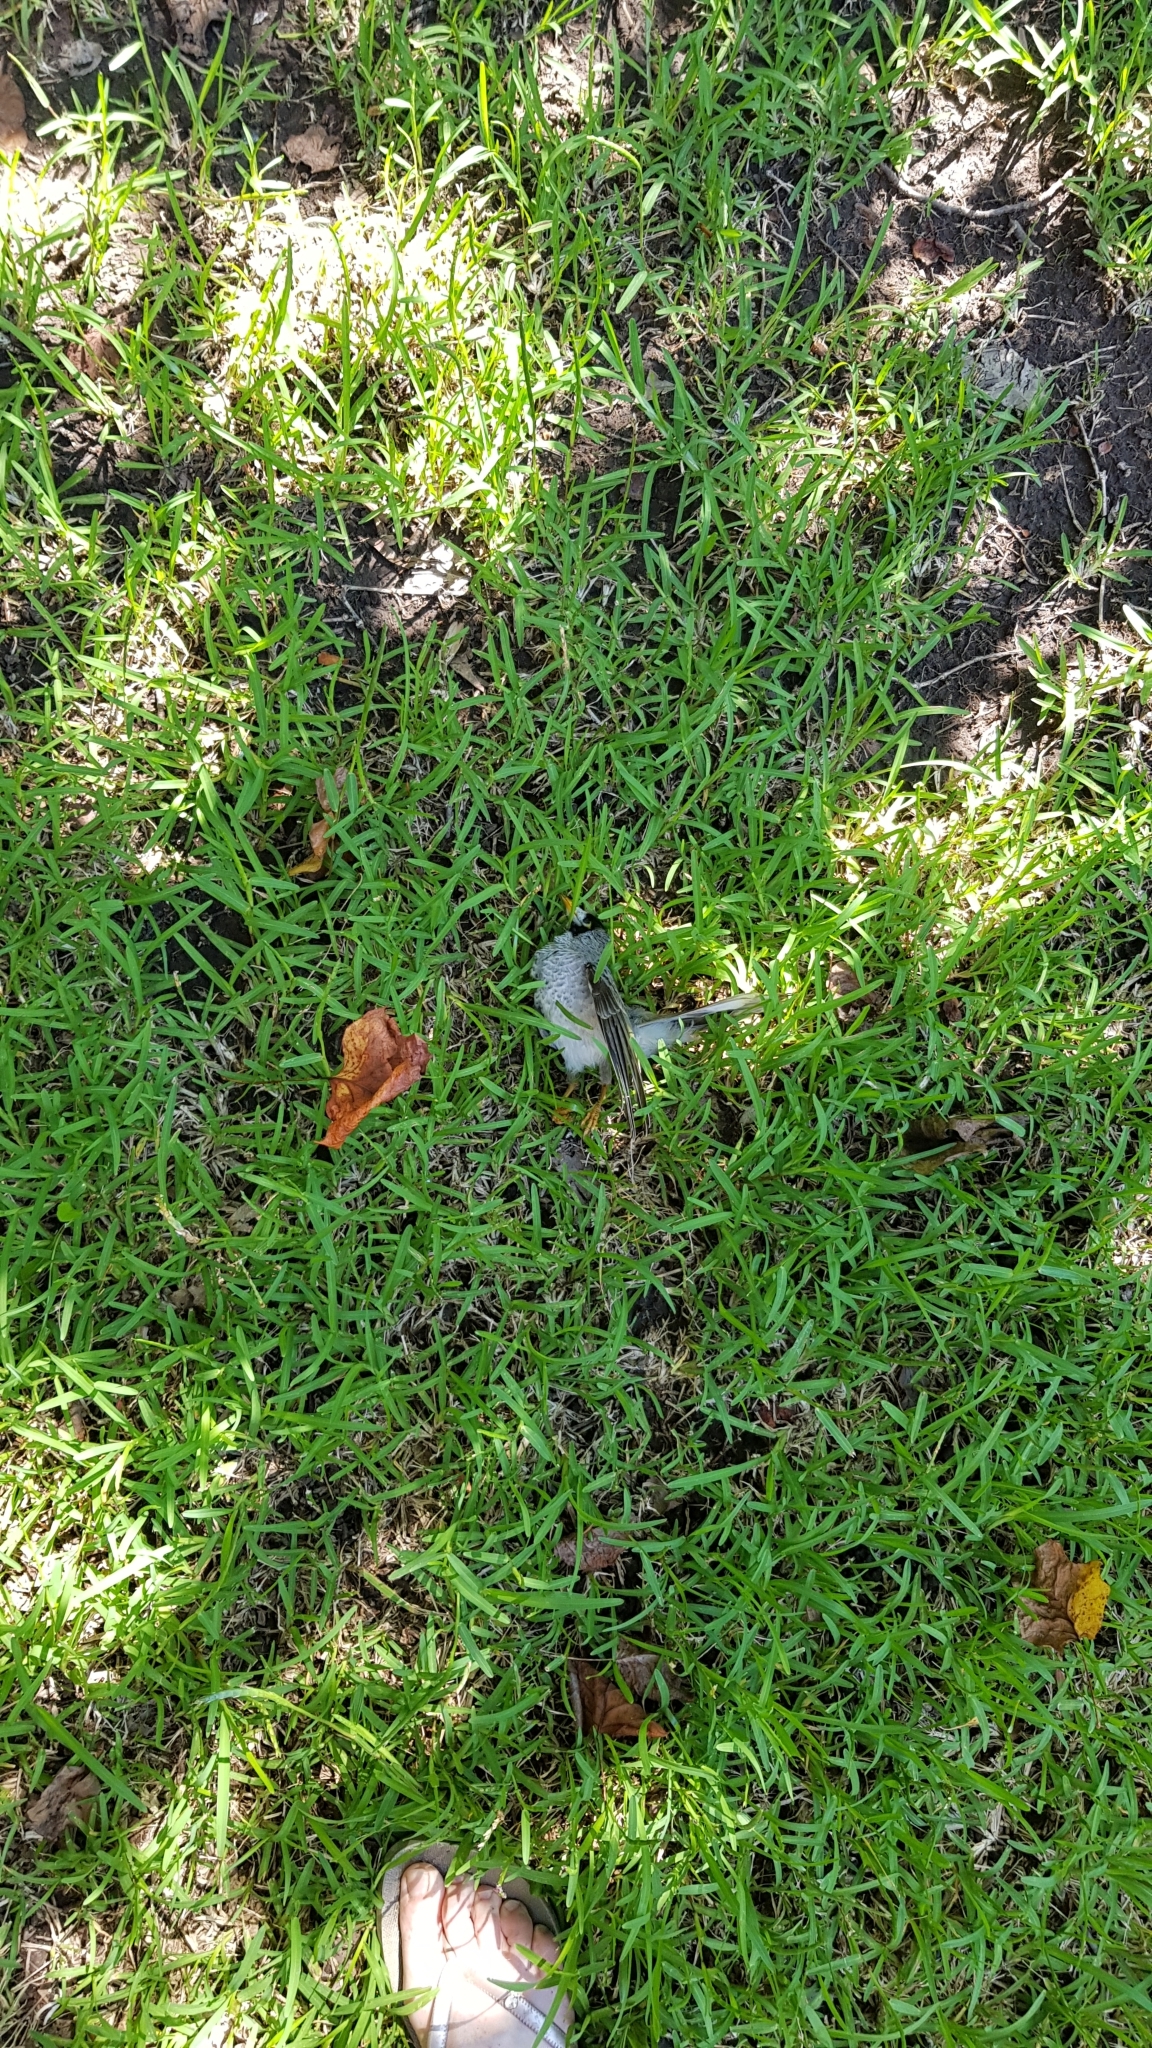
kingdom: Animalia
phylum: Chordata
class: Aves
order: Passeriformes
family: Meliphagidae
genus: Manorina
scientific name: Manorina melanocephala
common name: Noisy miner
